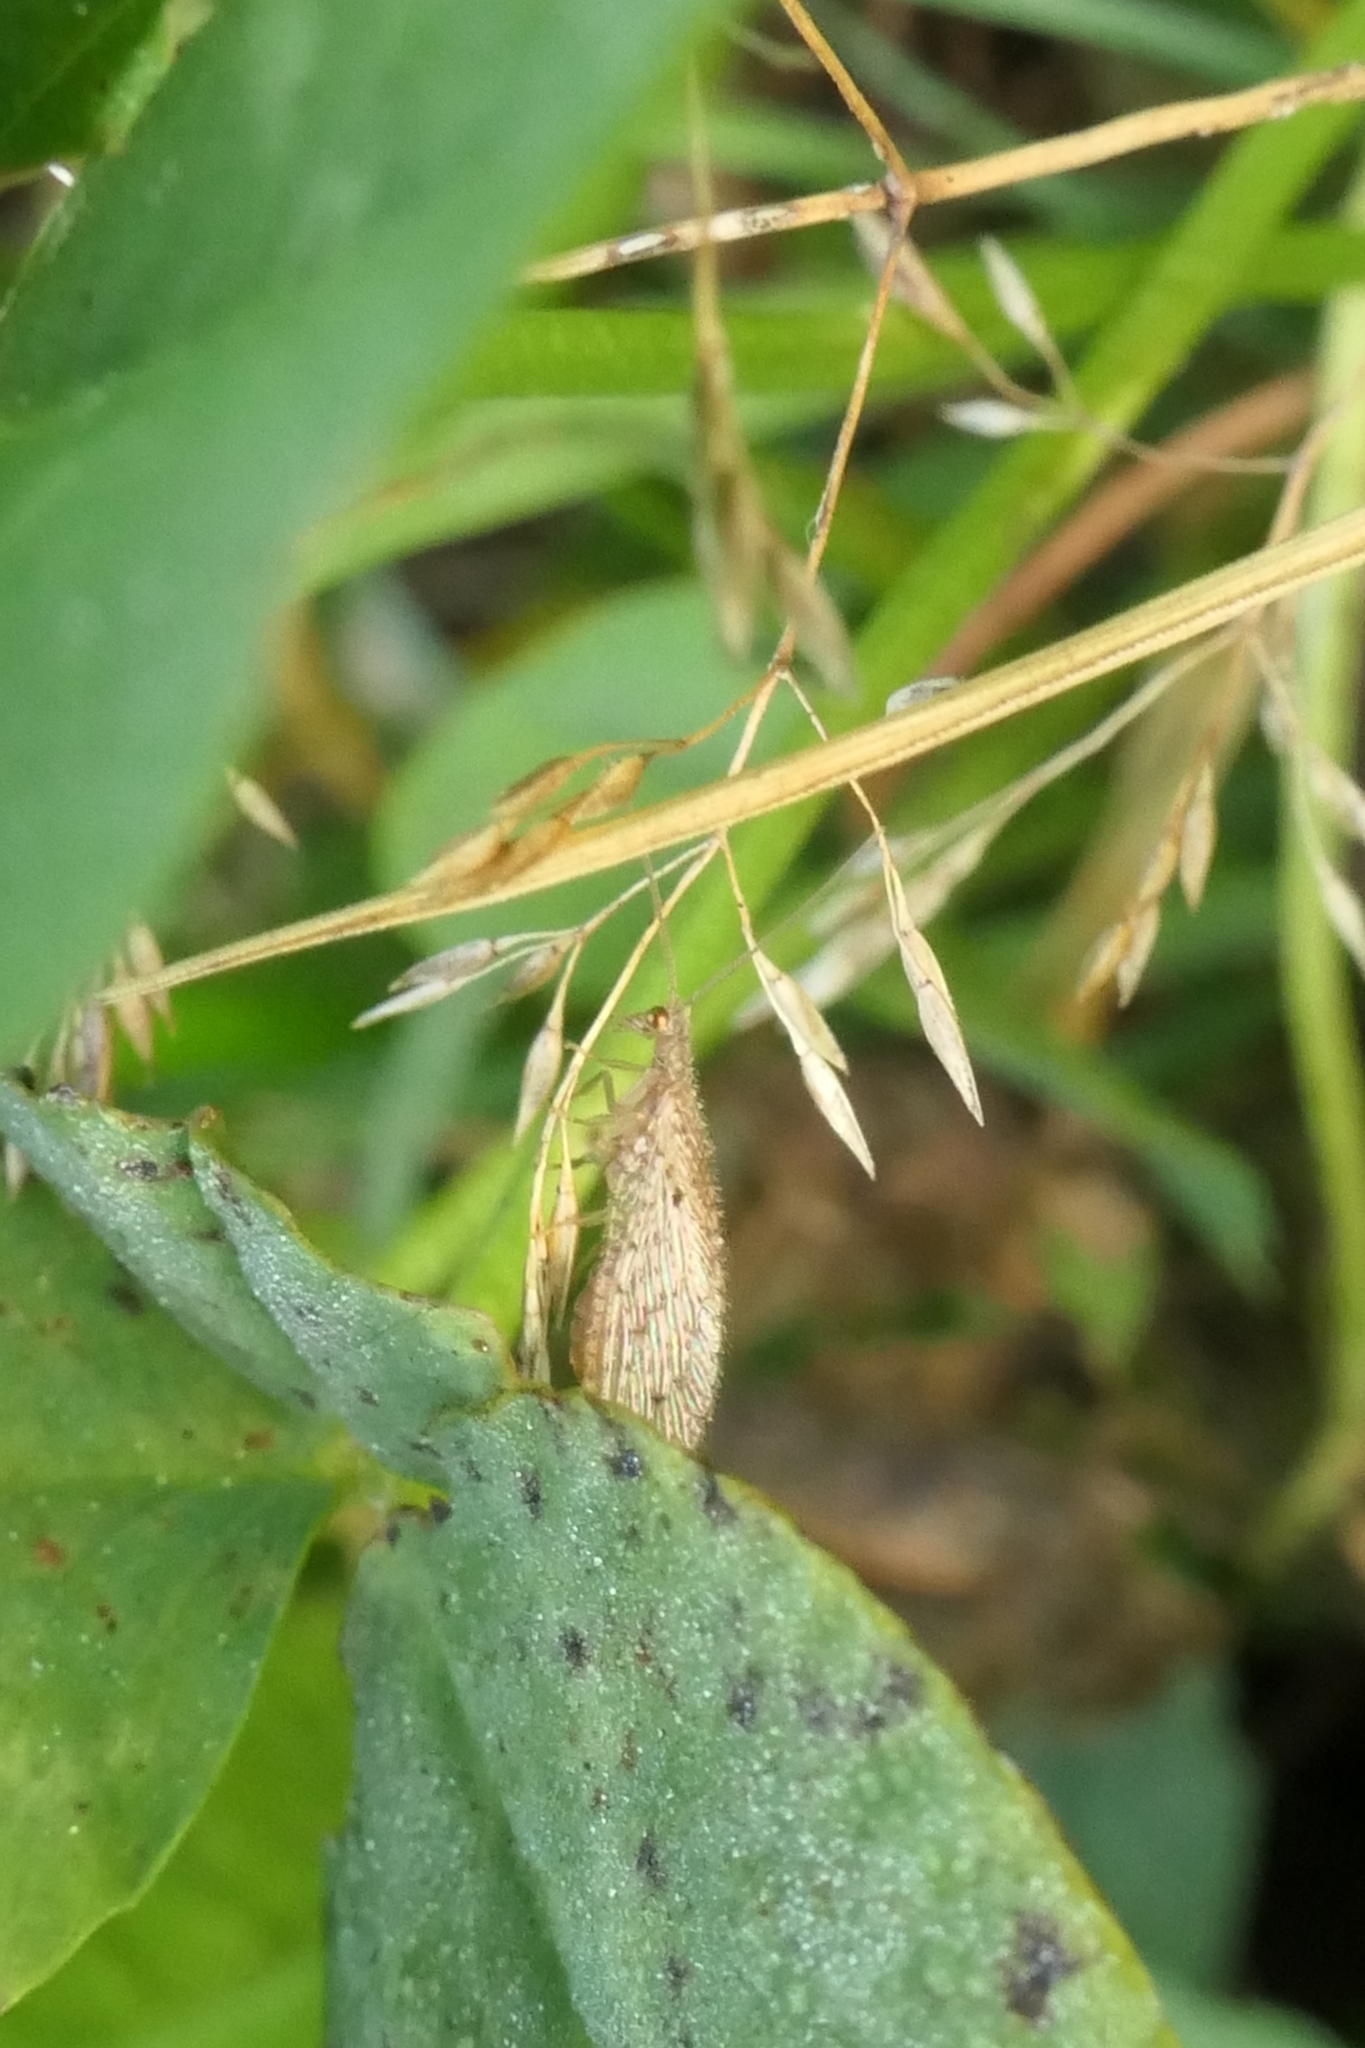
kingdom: Animalia
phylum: Arthropoda
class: Insecta
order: Neuroptera
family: Hemerobiidae
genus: Micromus
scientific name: Micromus tasmaniae
